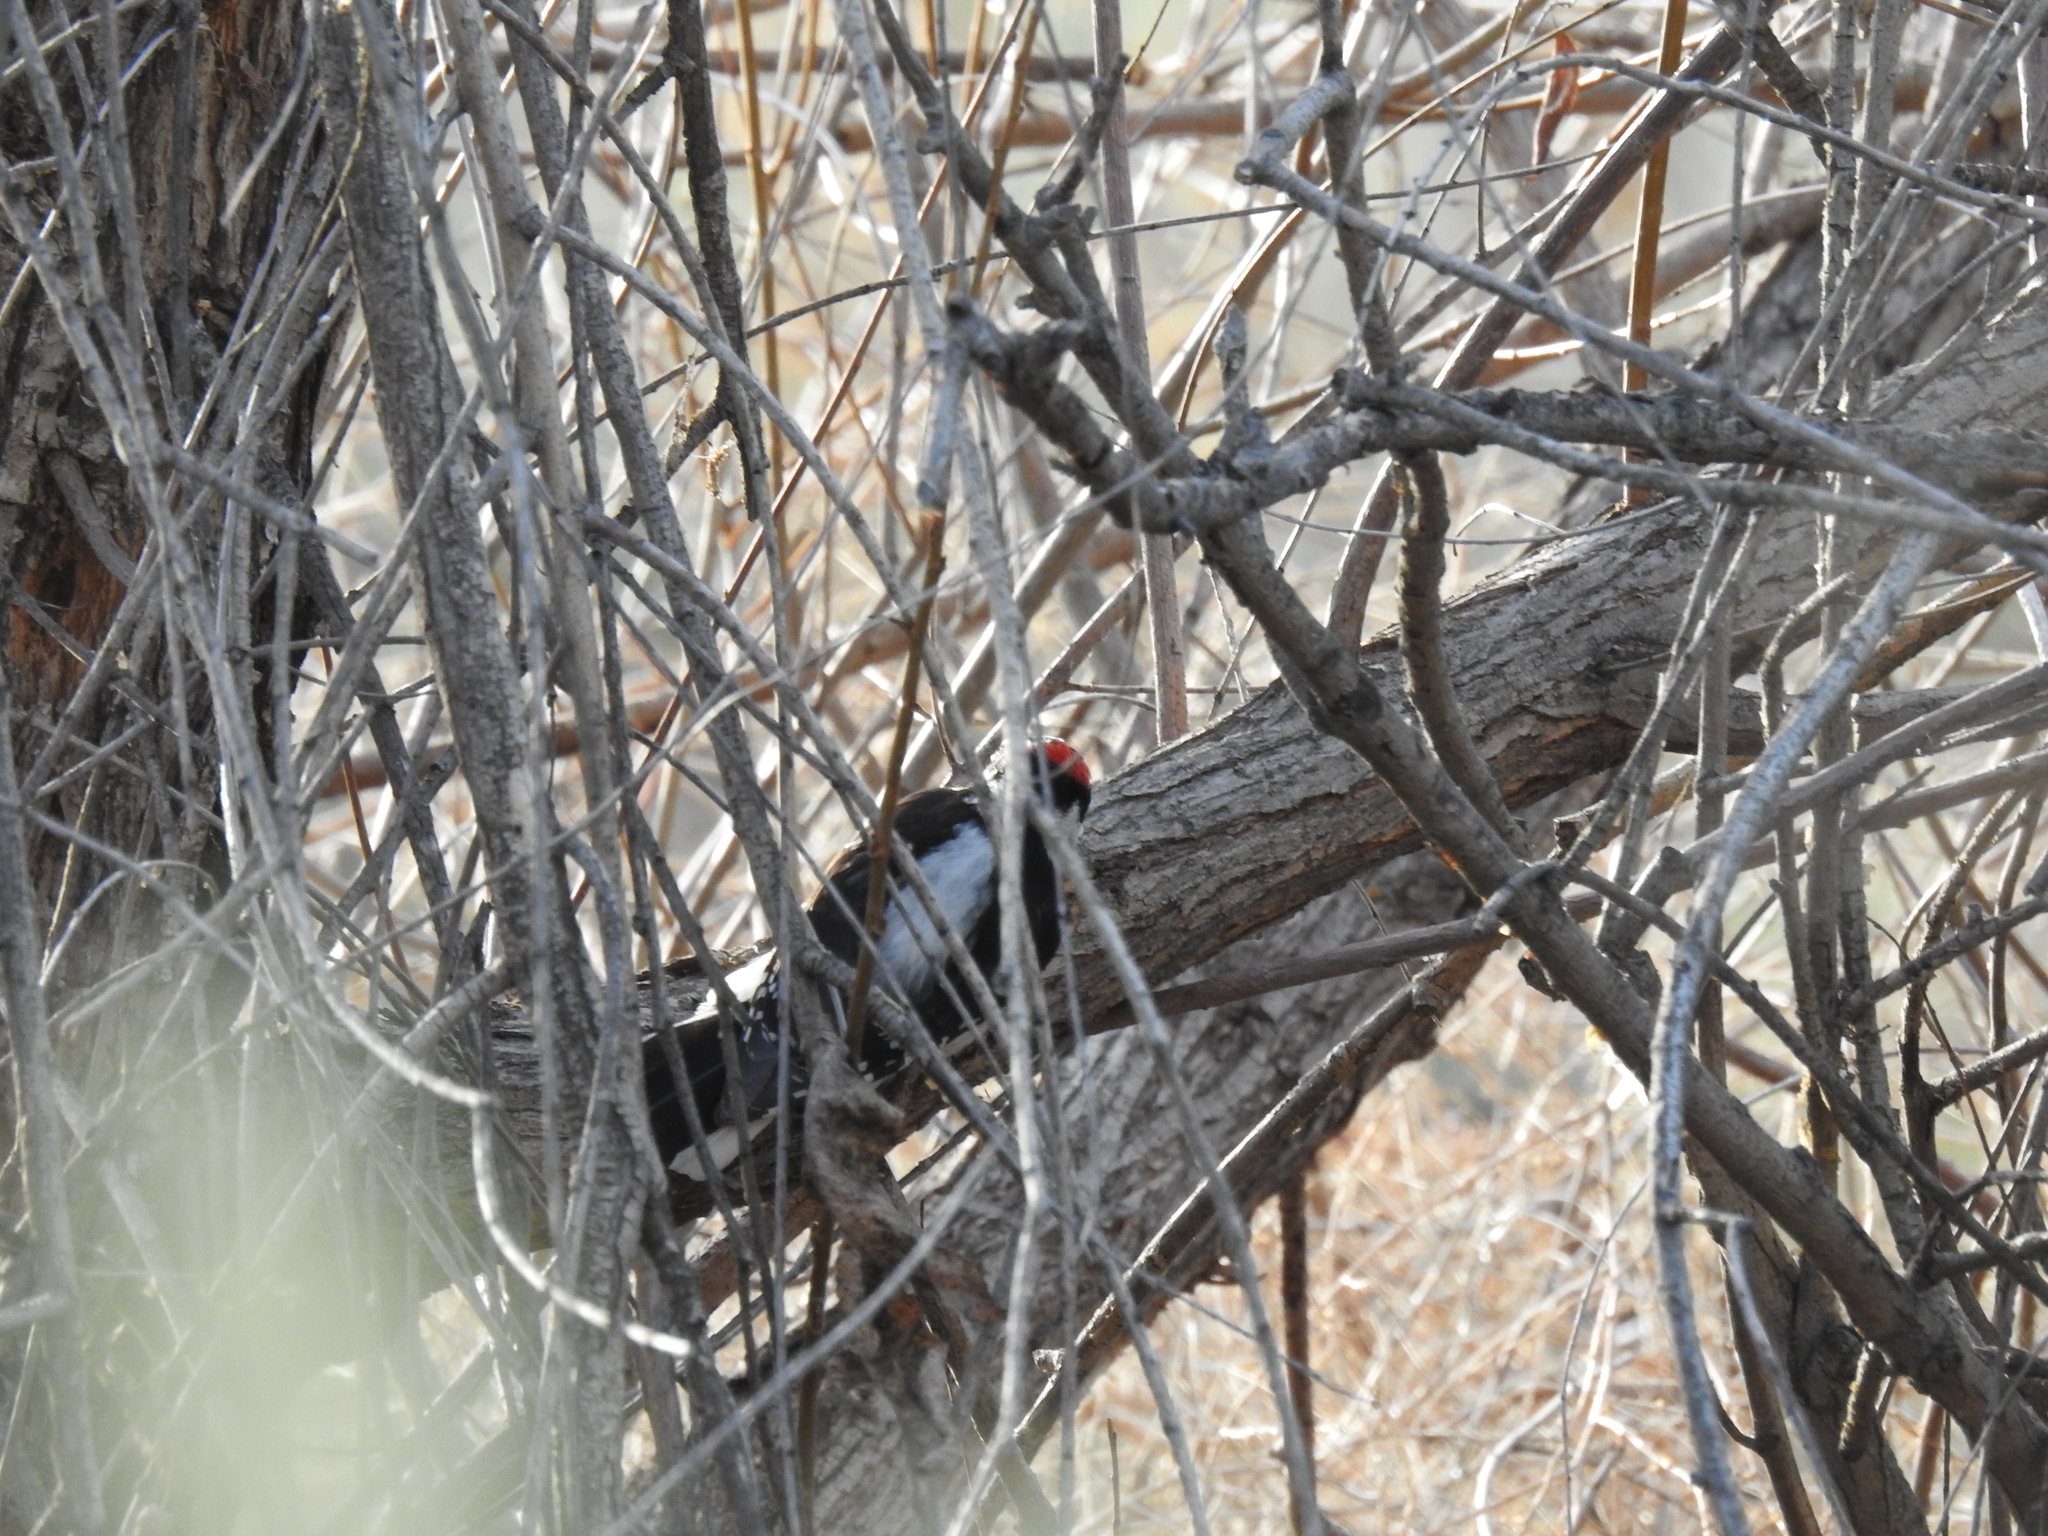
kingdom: Animalia
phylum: Chordata
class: Aves
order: Piciformes
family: Picidae
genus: Dryobates
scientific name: Dryobates pubescens
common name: Downy woodpecker
